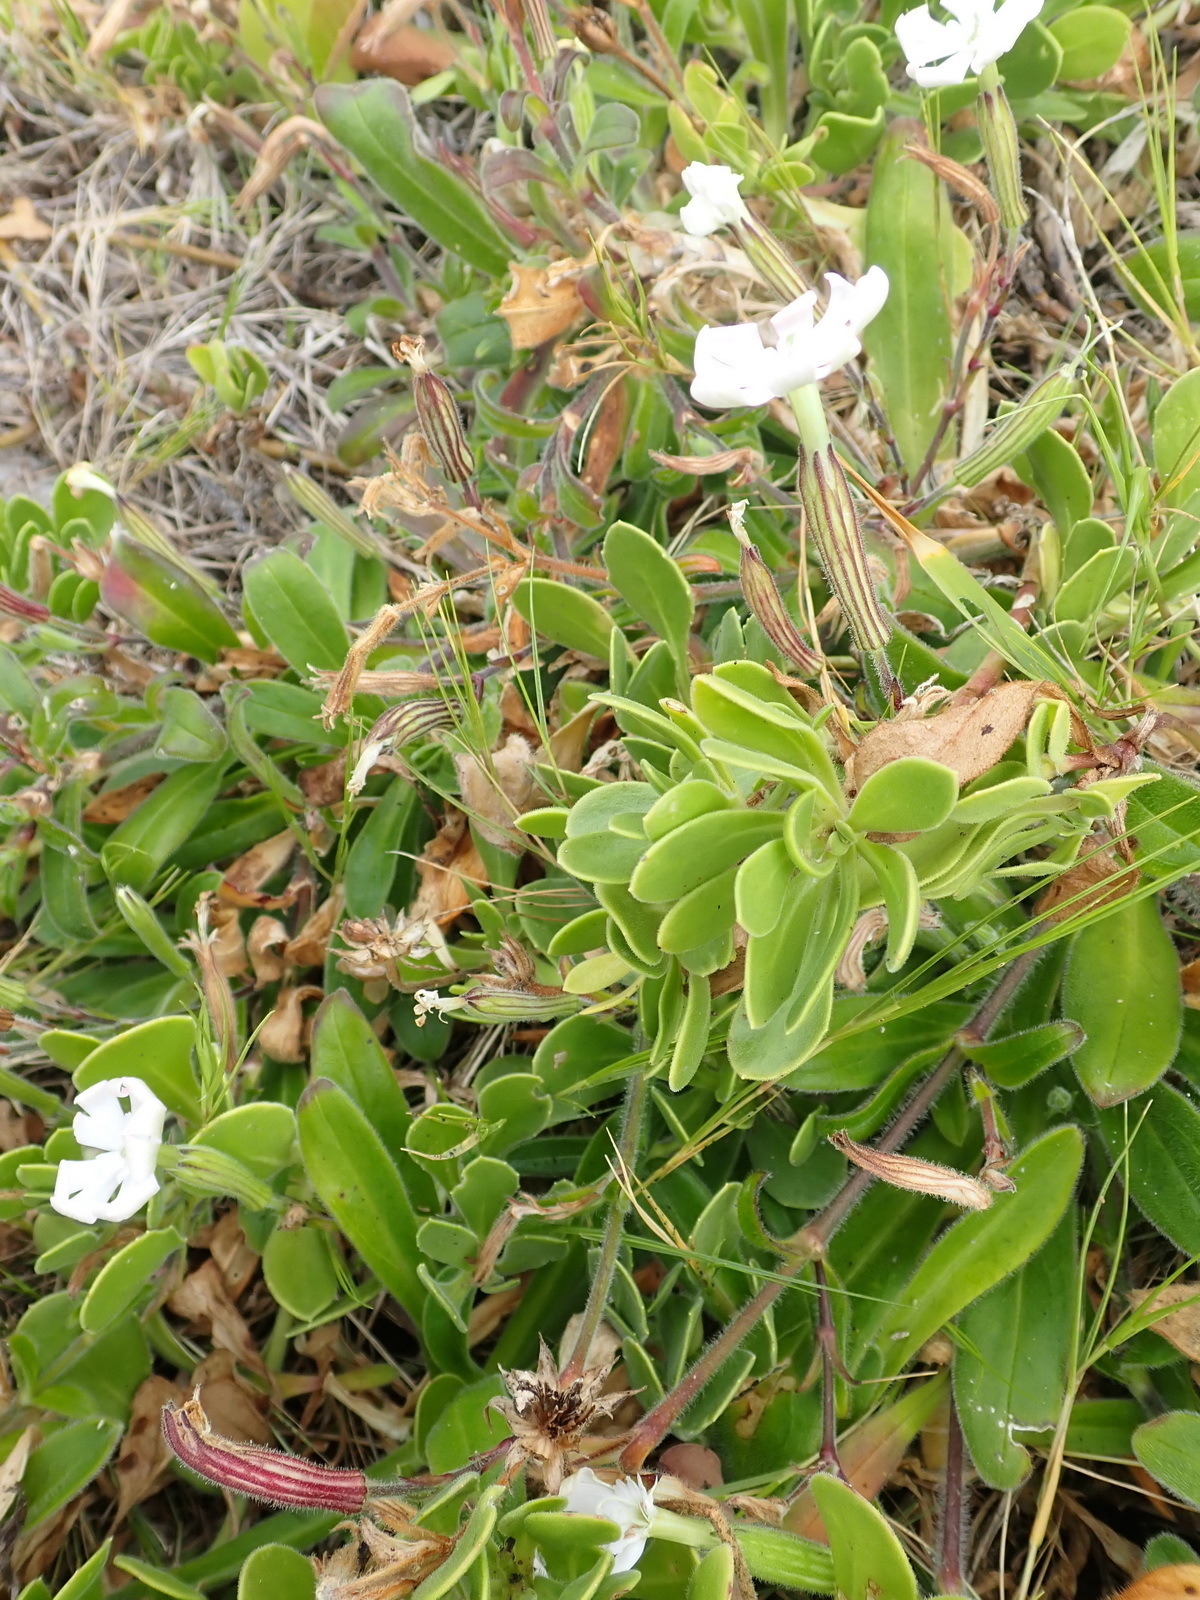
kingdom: Plantae
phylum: Tracheophyta
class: Magnoliopsida
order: Caryophyllales
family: Caryophyllaceae
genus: Silene
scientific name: Silene undulata
